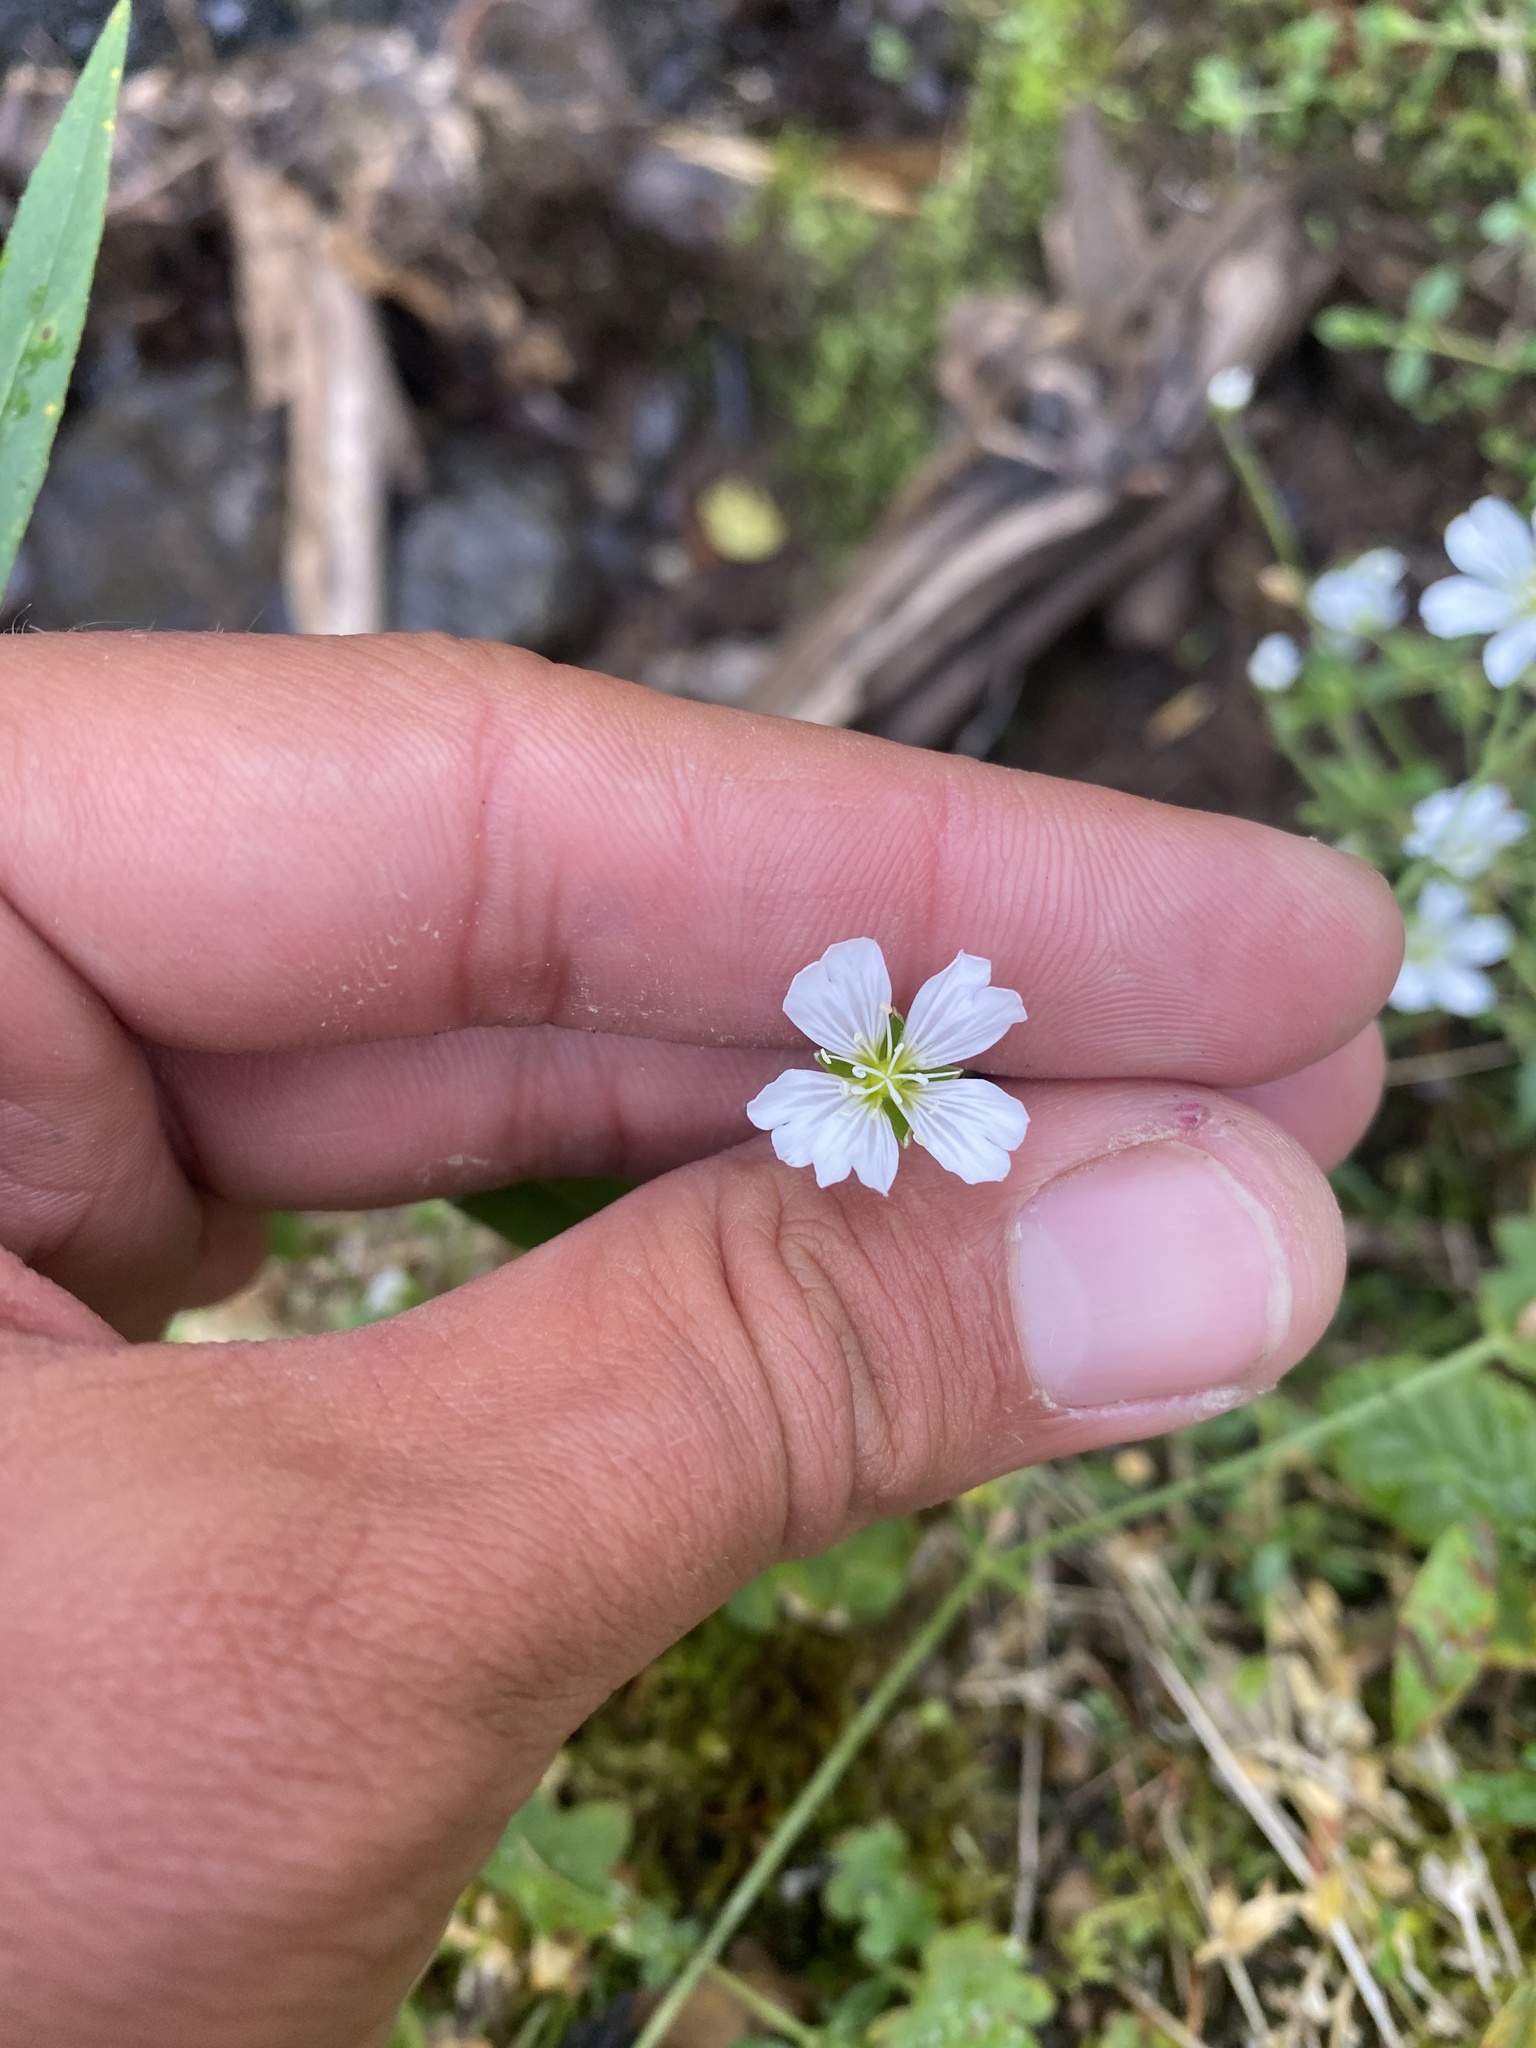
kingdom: Plantae
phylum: Tracheophyta
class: Magnoliopsida
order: Caryophyllales
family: Caryophyllaceae
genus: Cerastium
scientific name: Cerastium regelii
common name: Regel's chickweed
